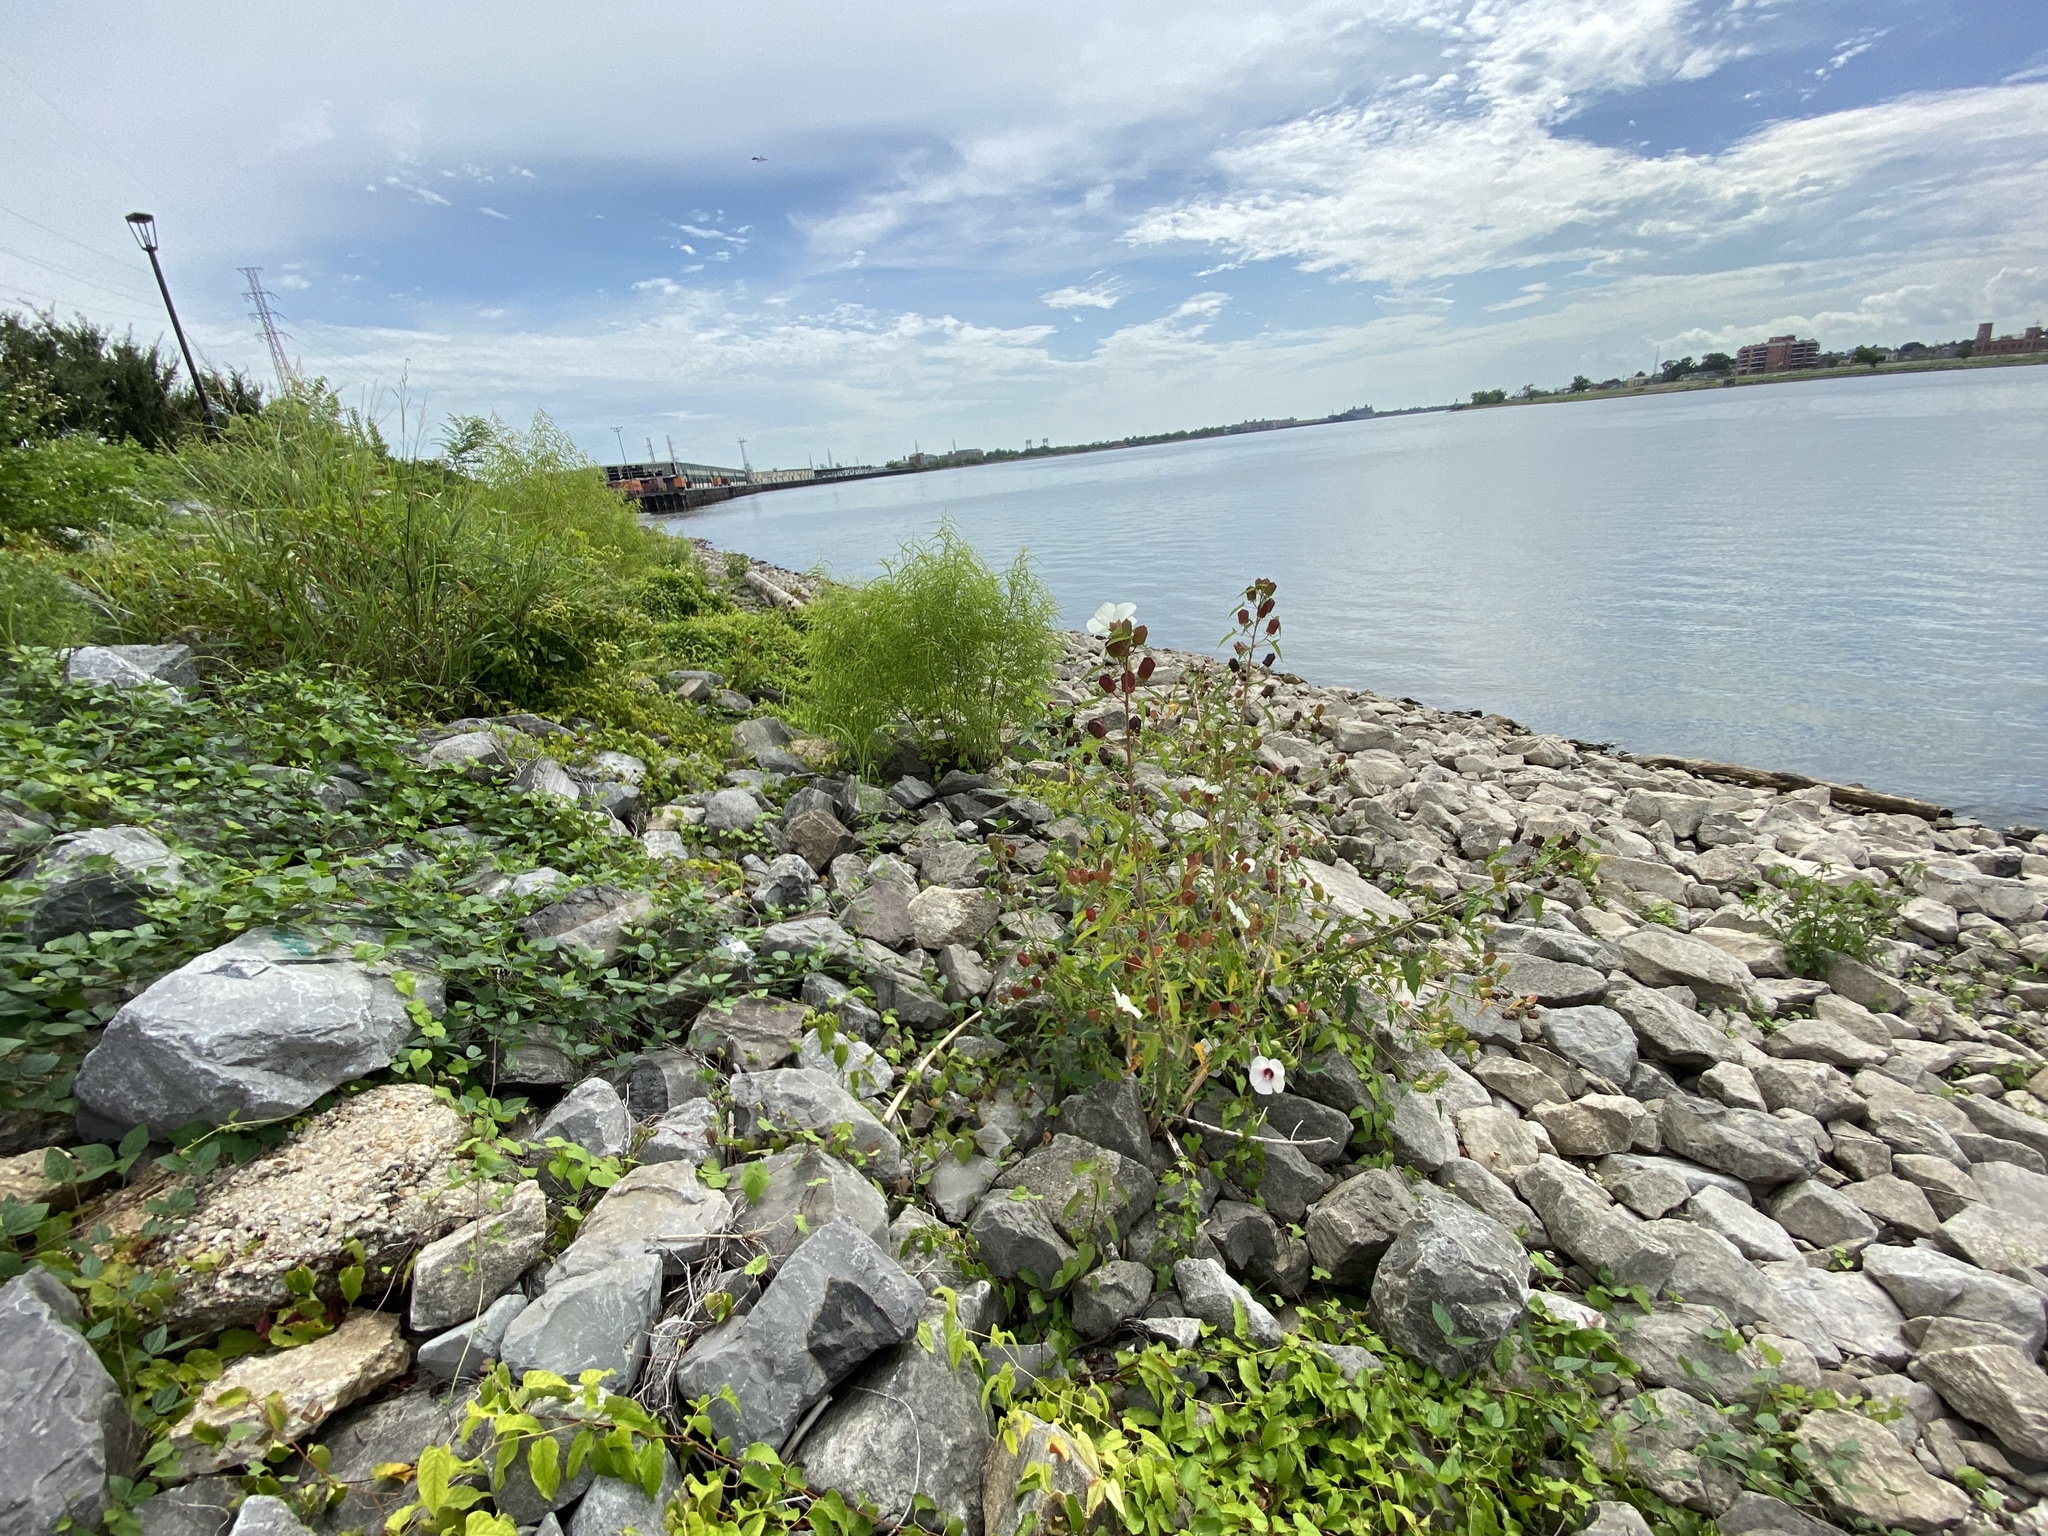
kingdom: Plantae
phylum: Tracheophyta
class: Magnoliopsida
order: Malvales
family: Malvaceae
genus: Hibiscus
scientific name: Hibiscus laevis
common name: Scarlet rose-mallow
